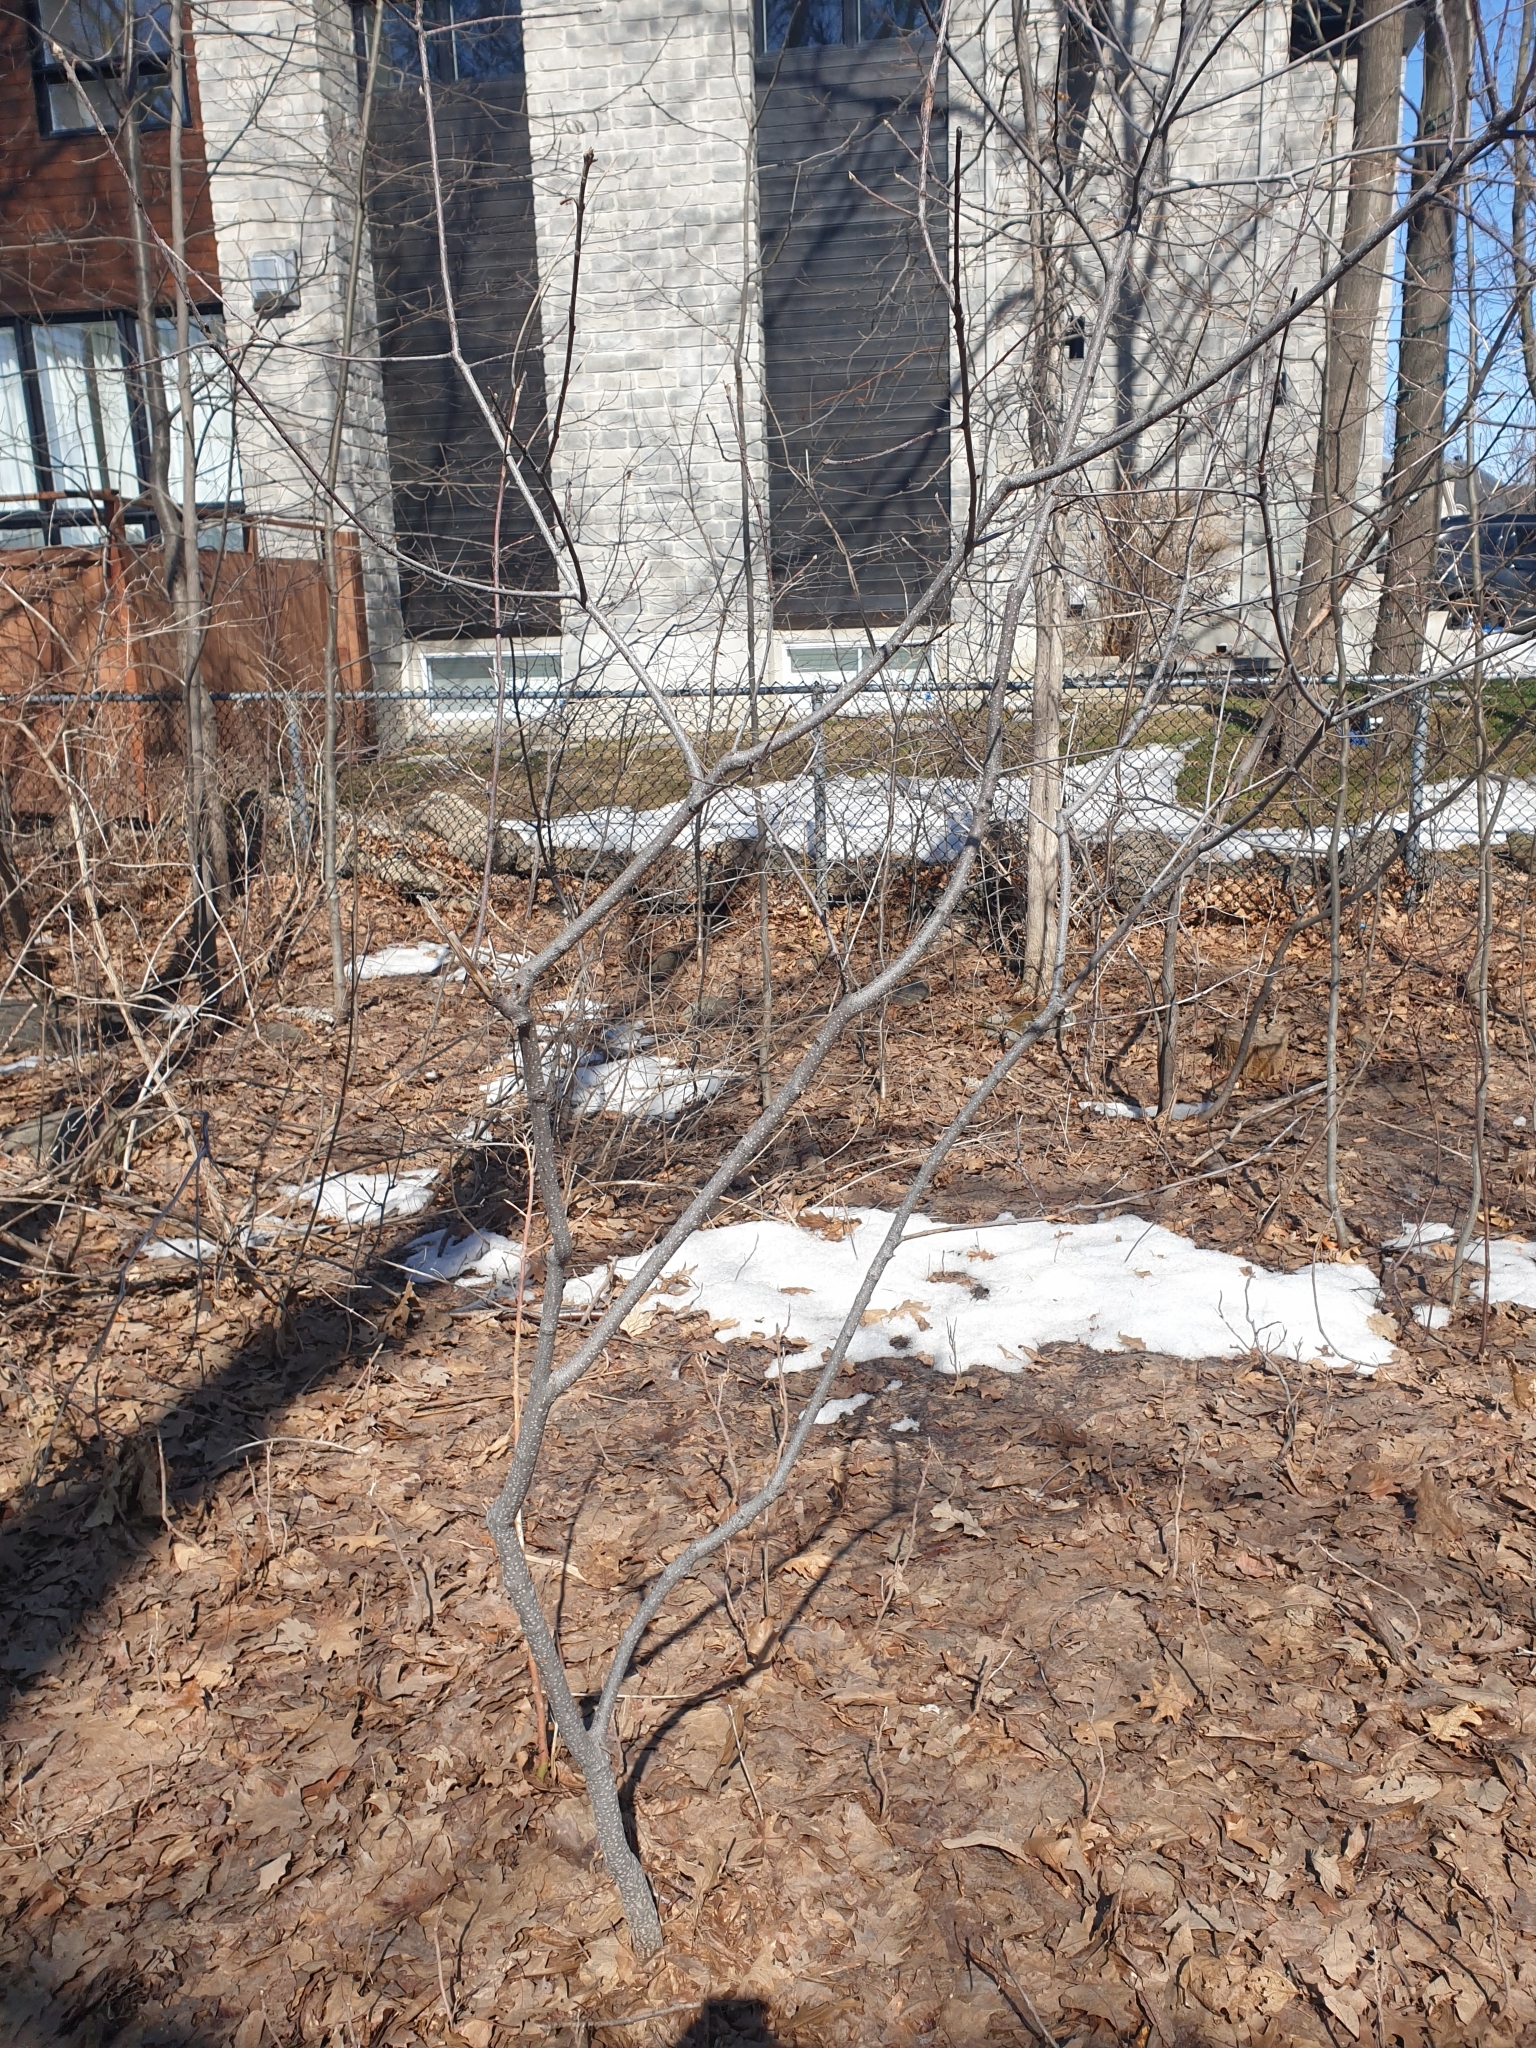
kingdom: Plantae
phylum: Tracheophyta
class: Magnoliopsida
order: Rosales
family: Rhamnaceae
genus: Frangula
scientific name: Frangula alnus
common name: Alder buckthorn
